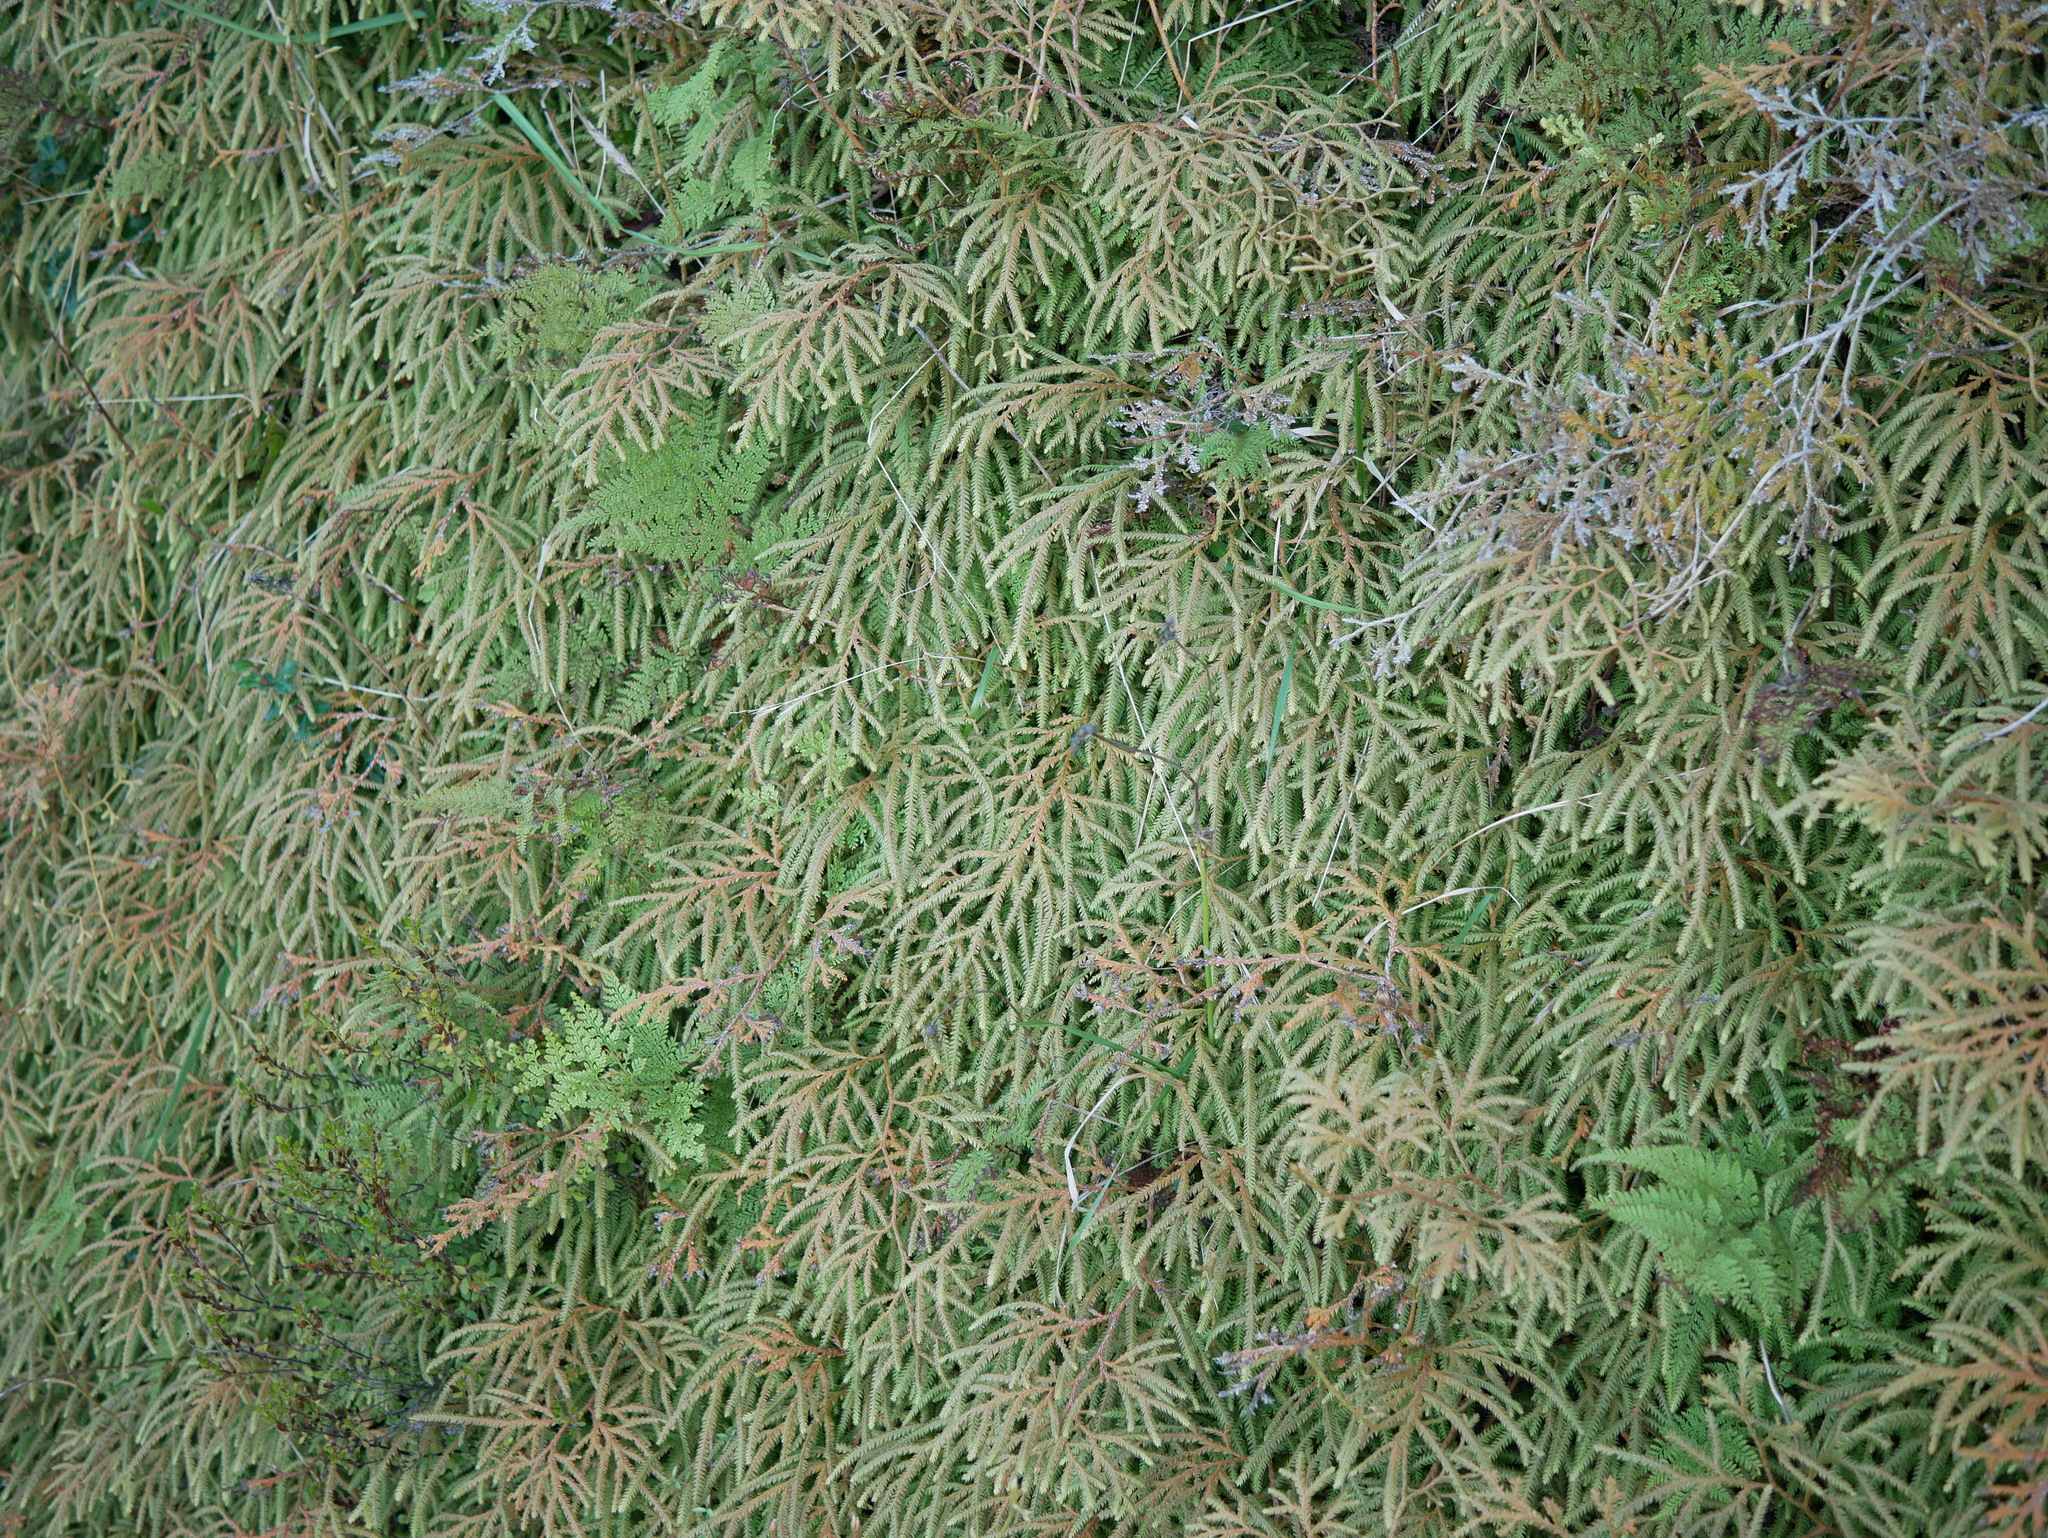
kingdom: Plantae
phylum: Tracheophyta
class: Lycopodiopsida
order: Lycopodiales
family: Lycopodiaceae
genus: Lycopodium
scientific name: Lycopodium volubile
